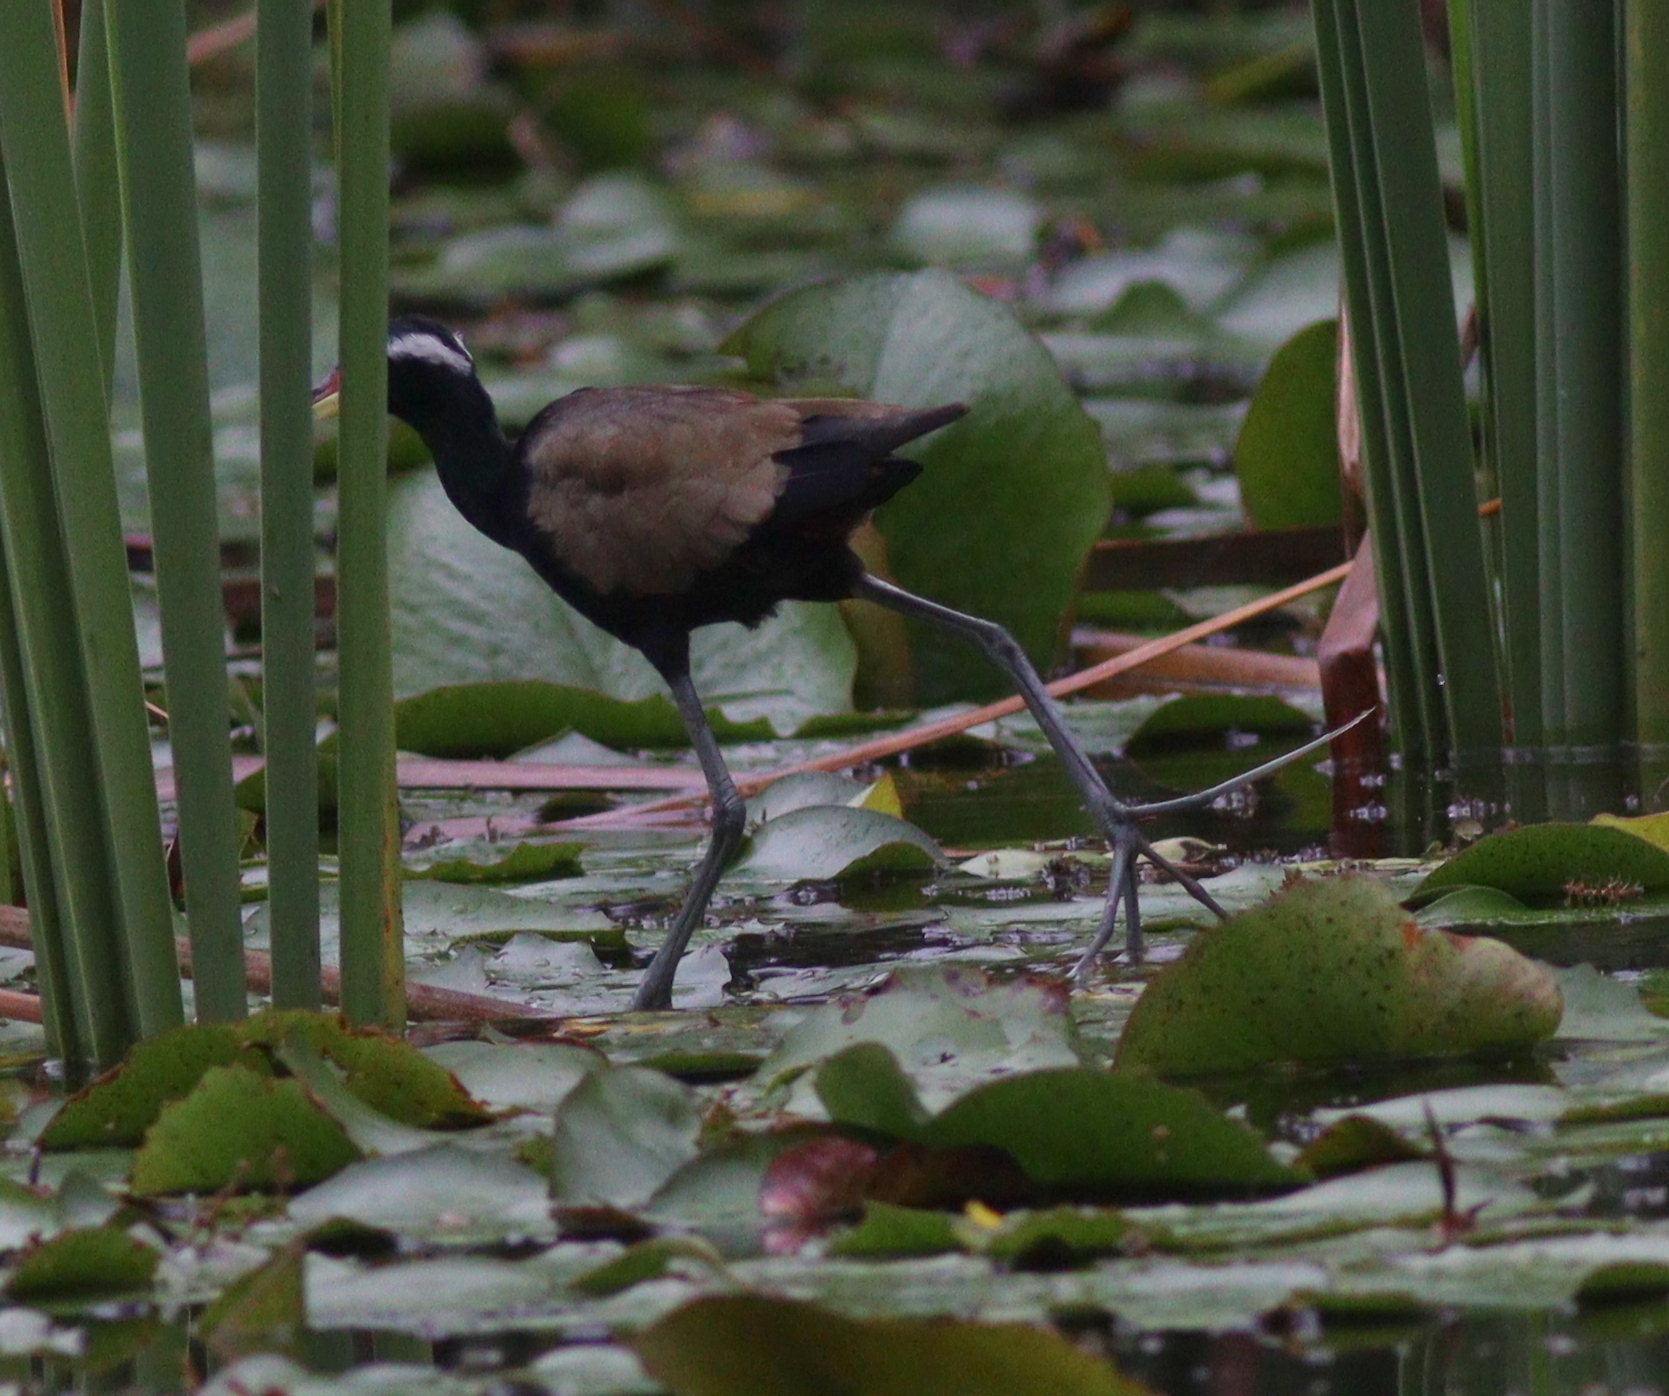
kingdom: Animalia
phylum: Chordata
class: Aves
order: Charadriiformes
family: Jacanidae
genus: Metopidius
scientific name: Metopidius indicus
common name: Bronze-winged jacana
